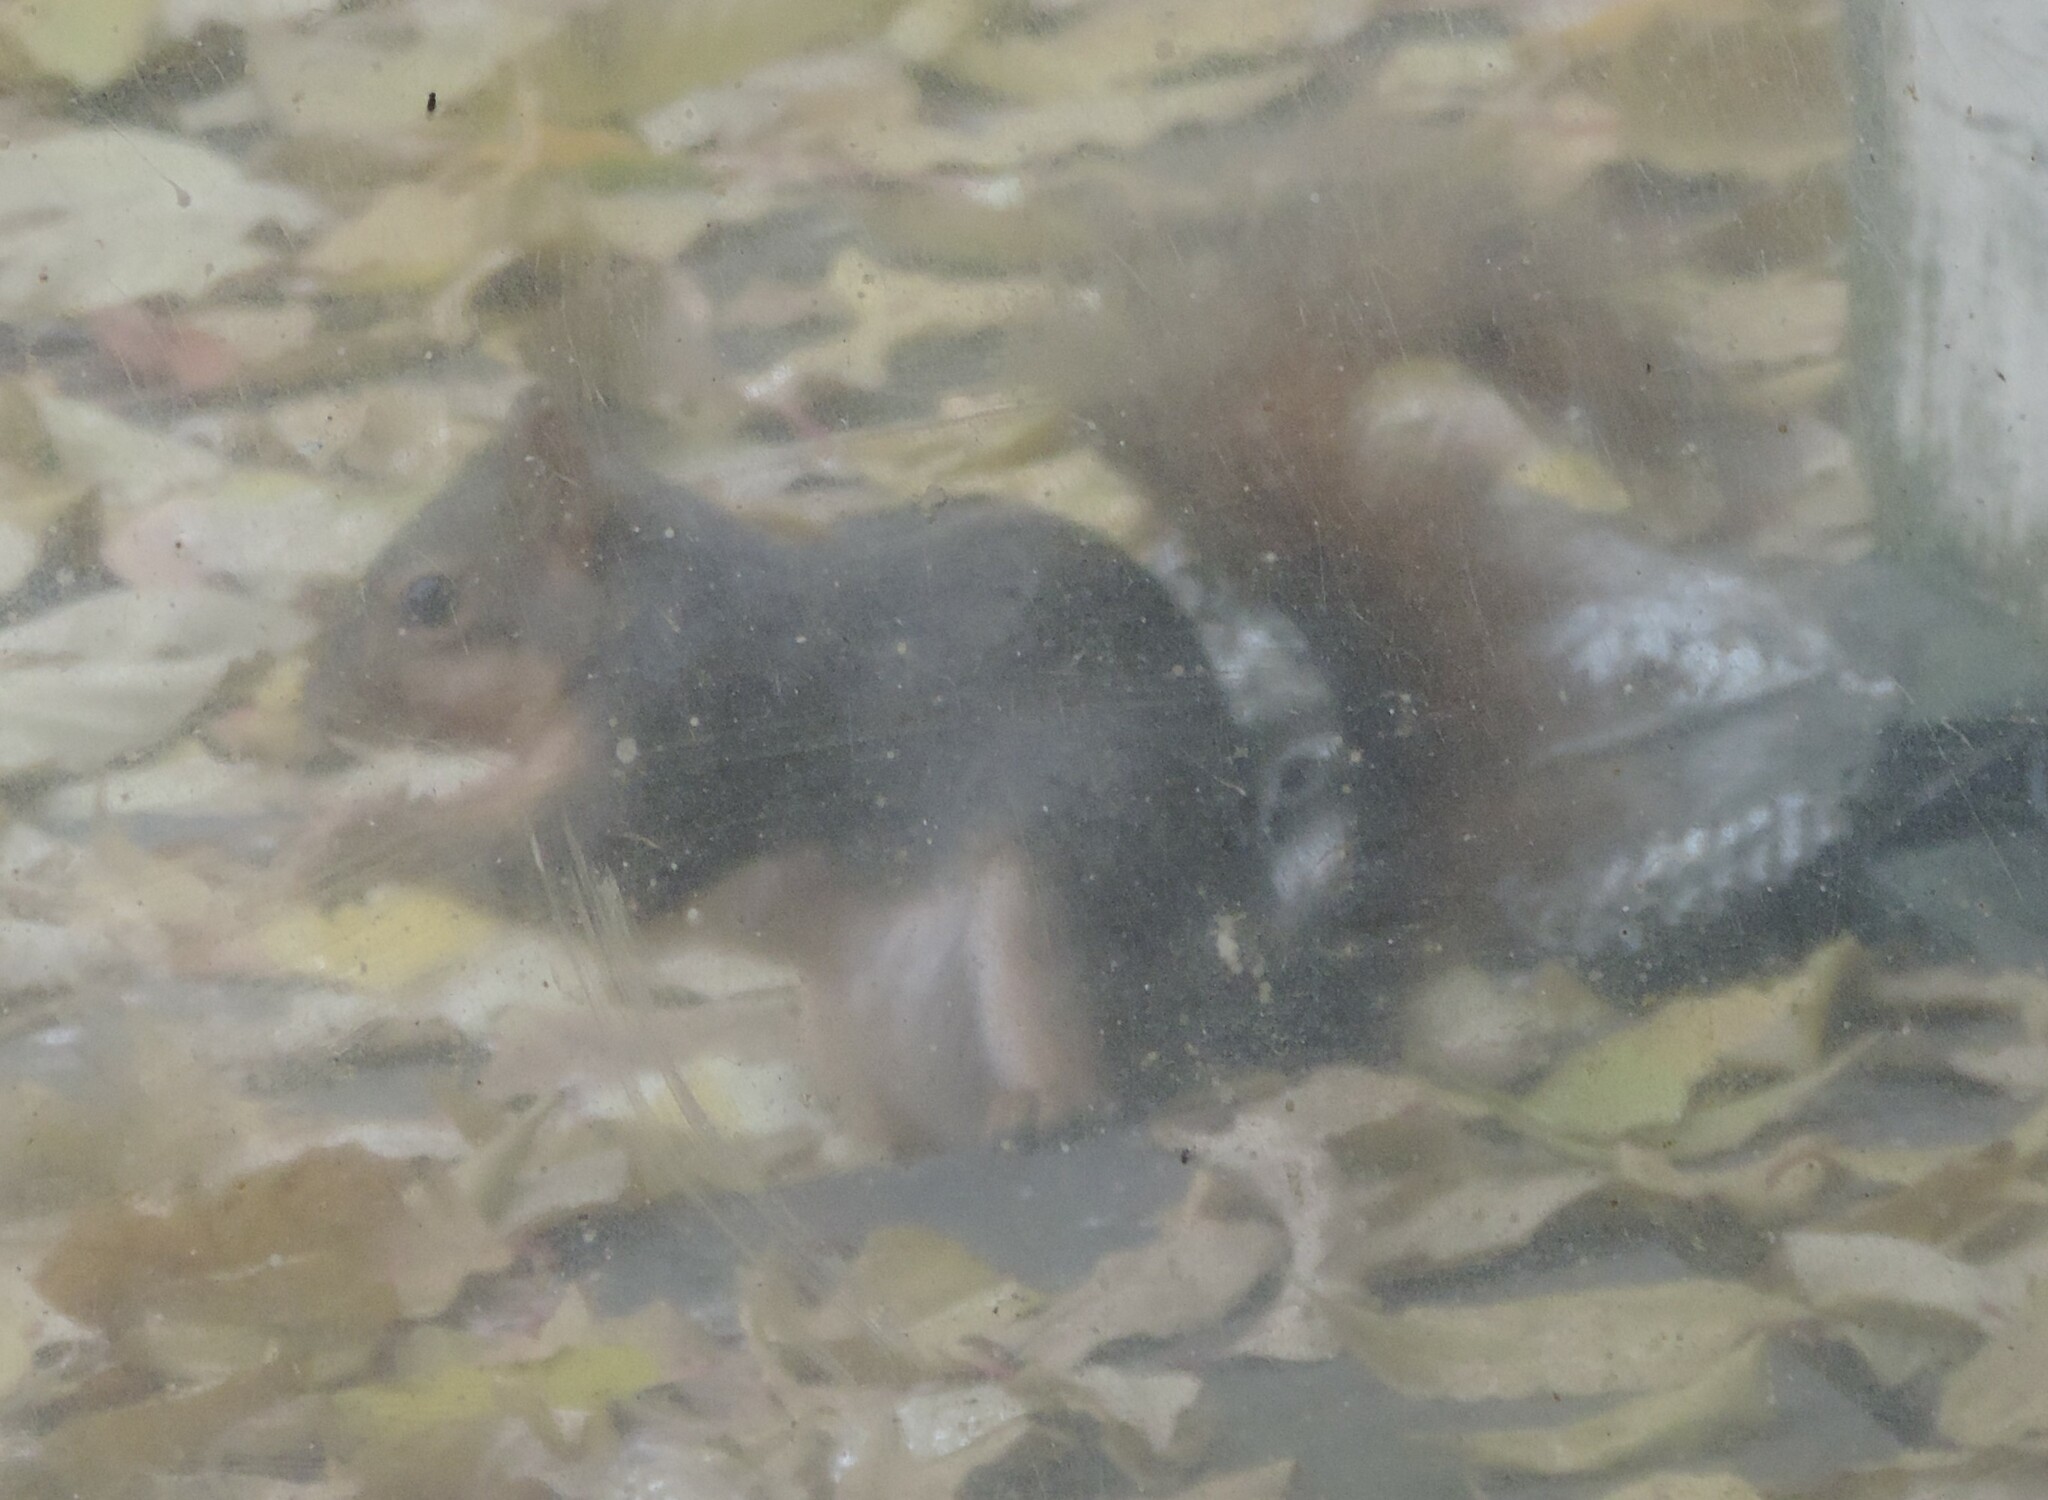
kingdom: Animalia
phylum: Chordata
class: Mammalia
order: Rodentia
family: Sciuridae
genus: Sciurus
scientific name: Sciurus niger
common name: Fox squirrel
